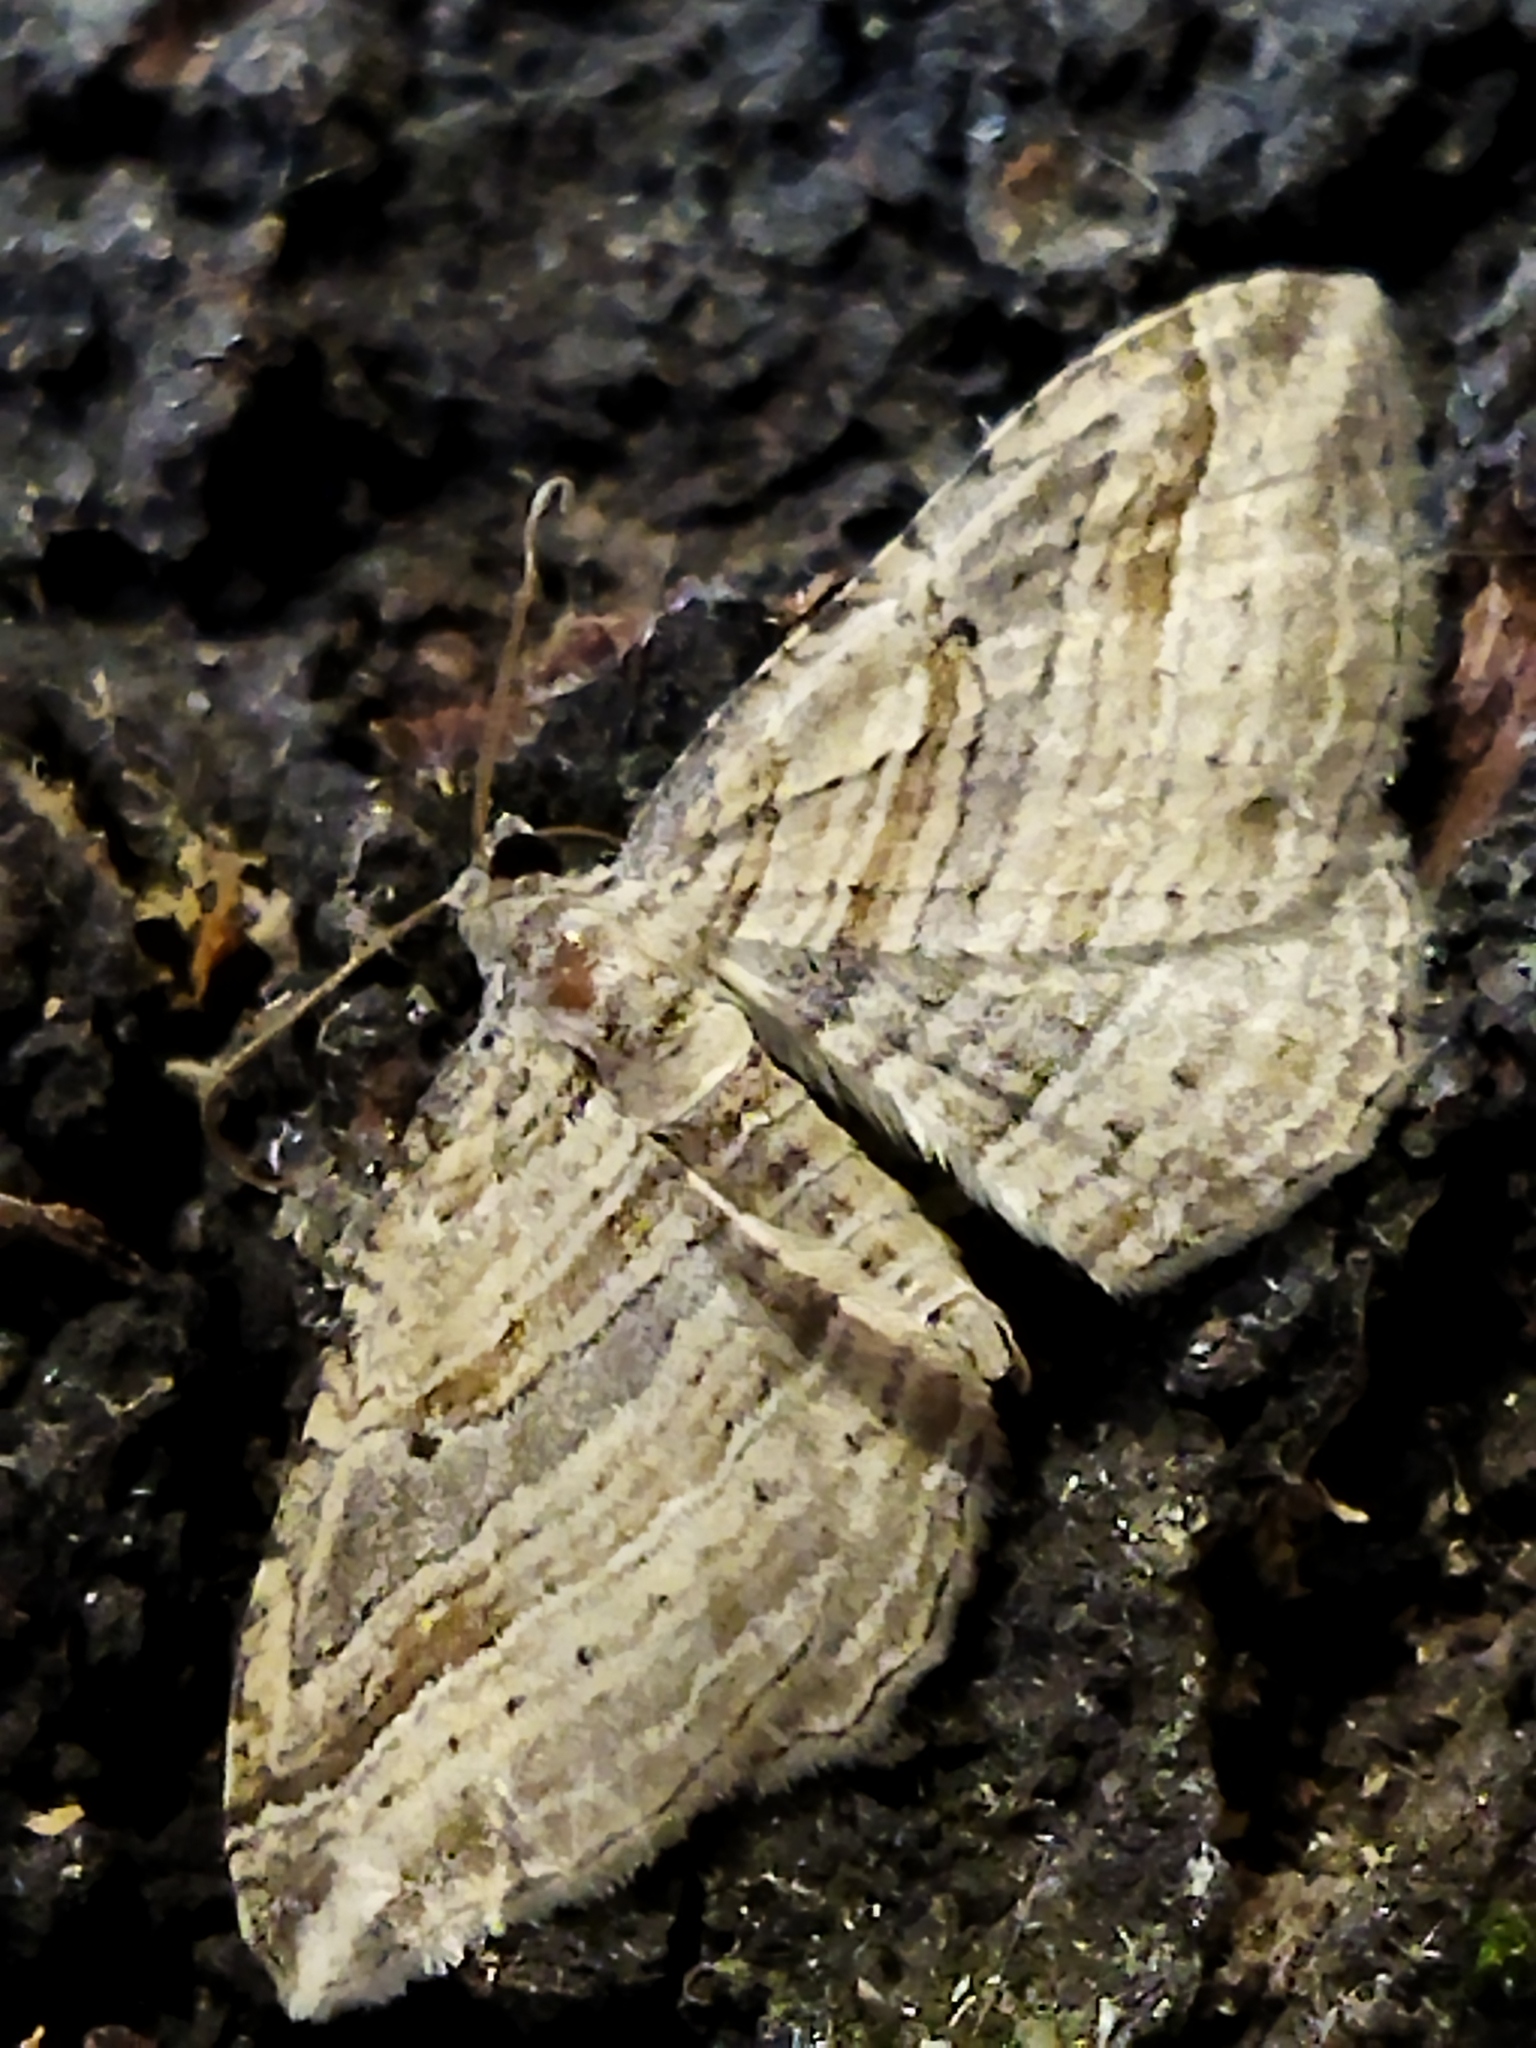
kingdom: Animalia
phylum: Arthropoda
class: Insecta
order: Lepidoptera
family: Geometridae
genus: Costaconvexa
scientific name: Costaconvexa polygrammata
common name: Many-lined
